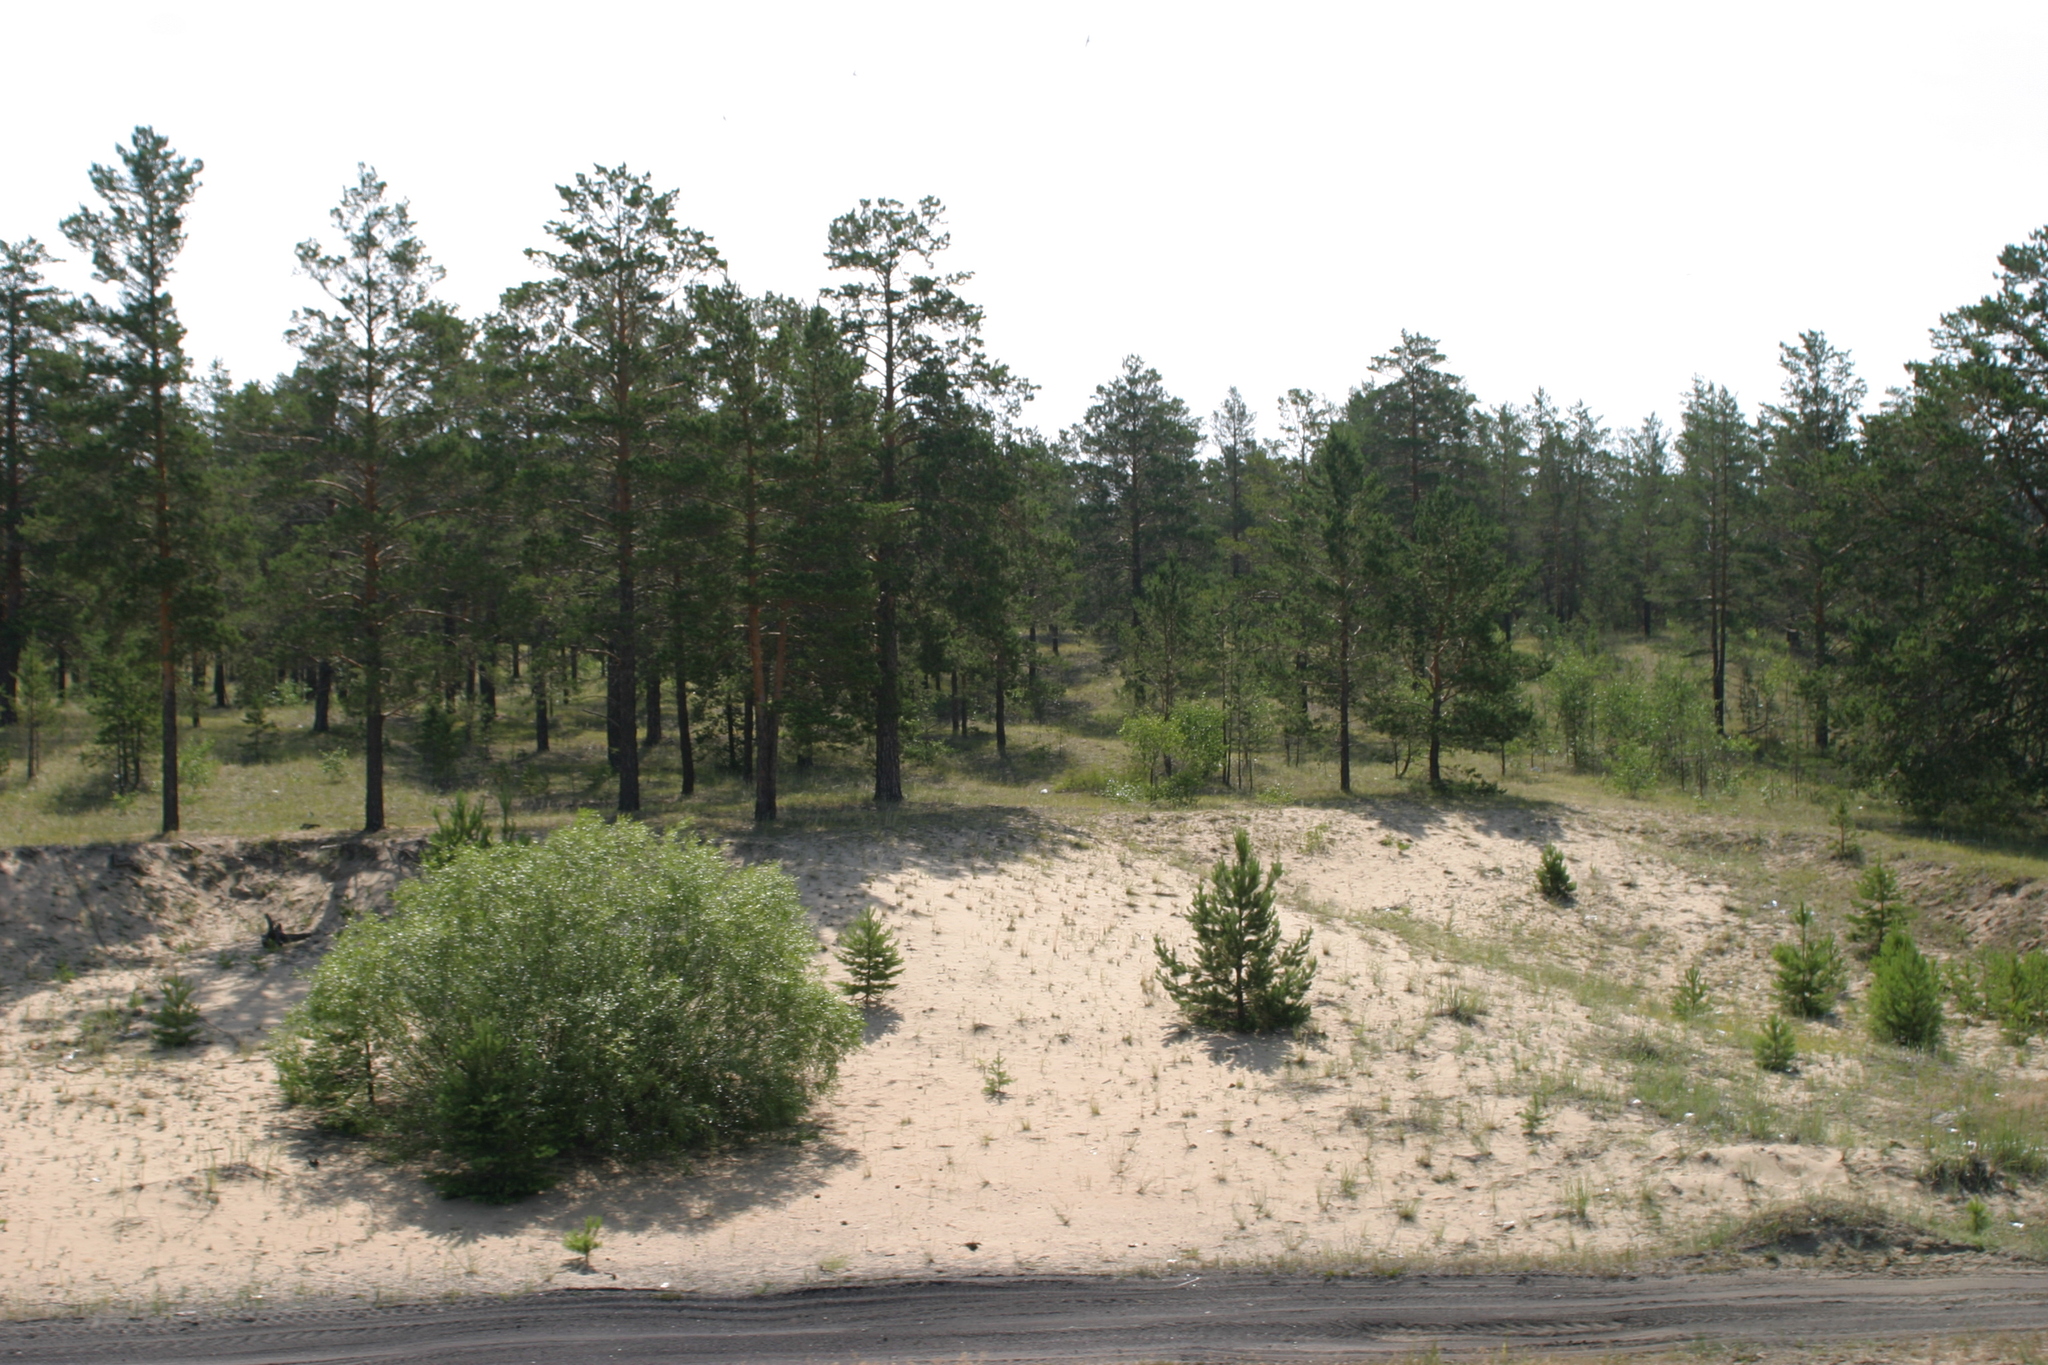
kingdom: Plantae
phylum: Tracheophyta
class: Pinopsida
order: Pinales
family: Pinaceae
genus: Pinus
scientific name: Pinus sylvestris
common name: Scots pine
